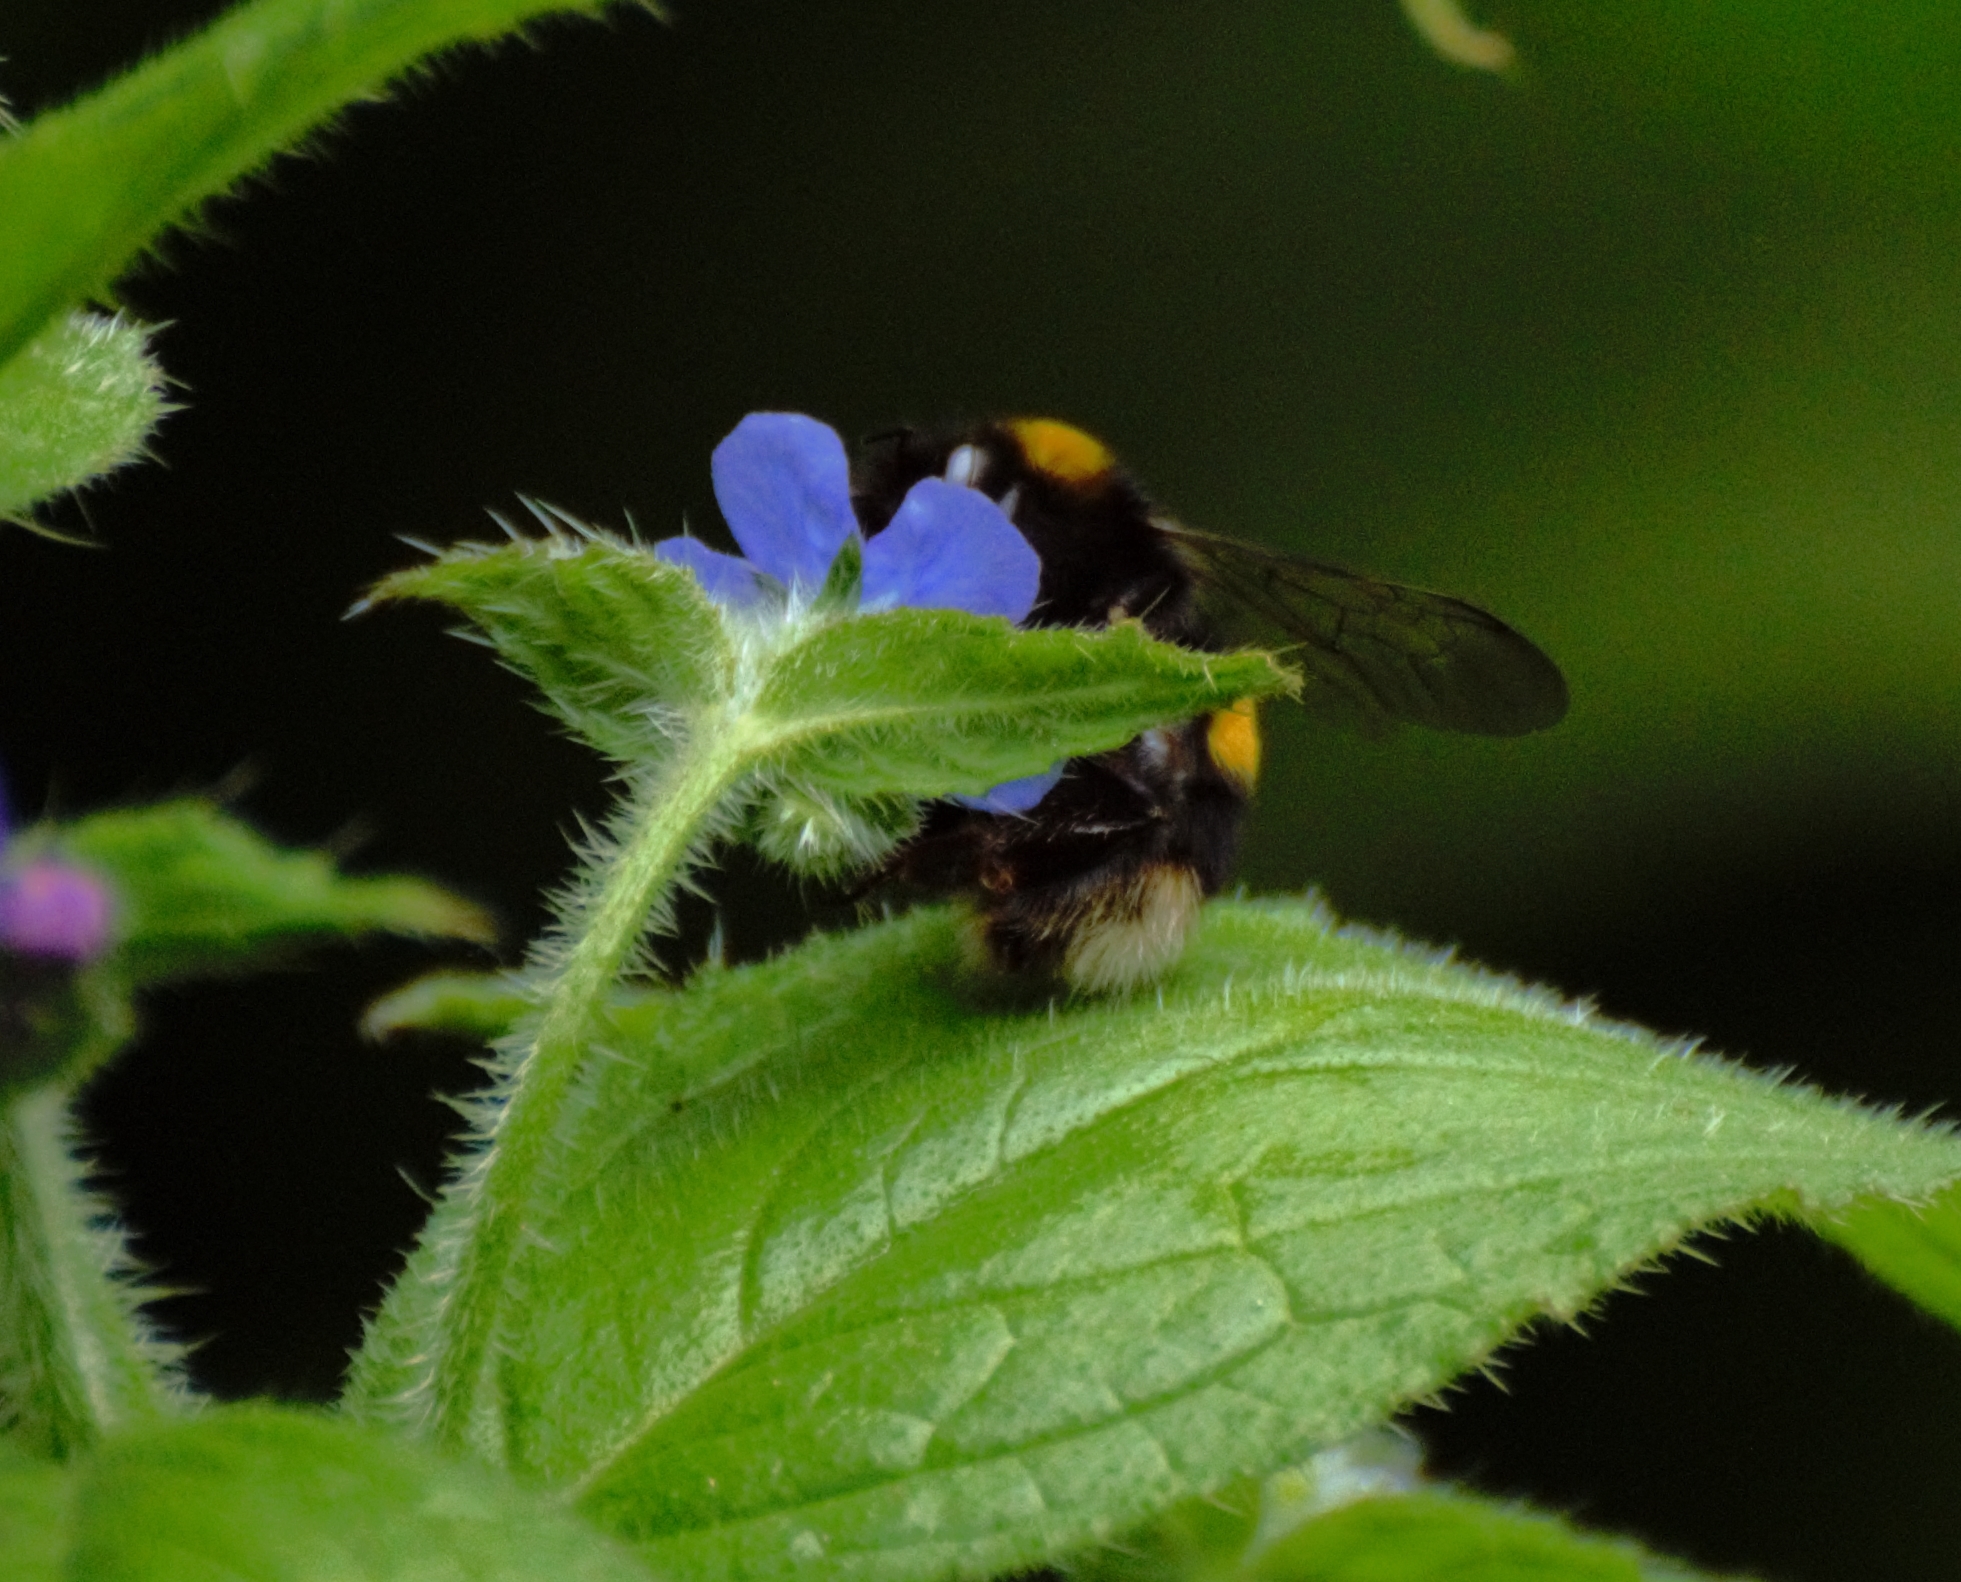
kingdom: Animalia
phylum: Arthropoda
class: Insecta
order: Hymenoptera
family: Apidae
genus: Bombus
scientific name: Bombus terrestris
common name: Buff-tailed bumblebee
